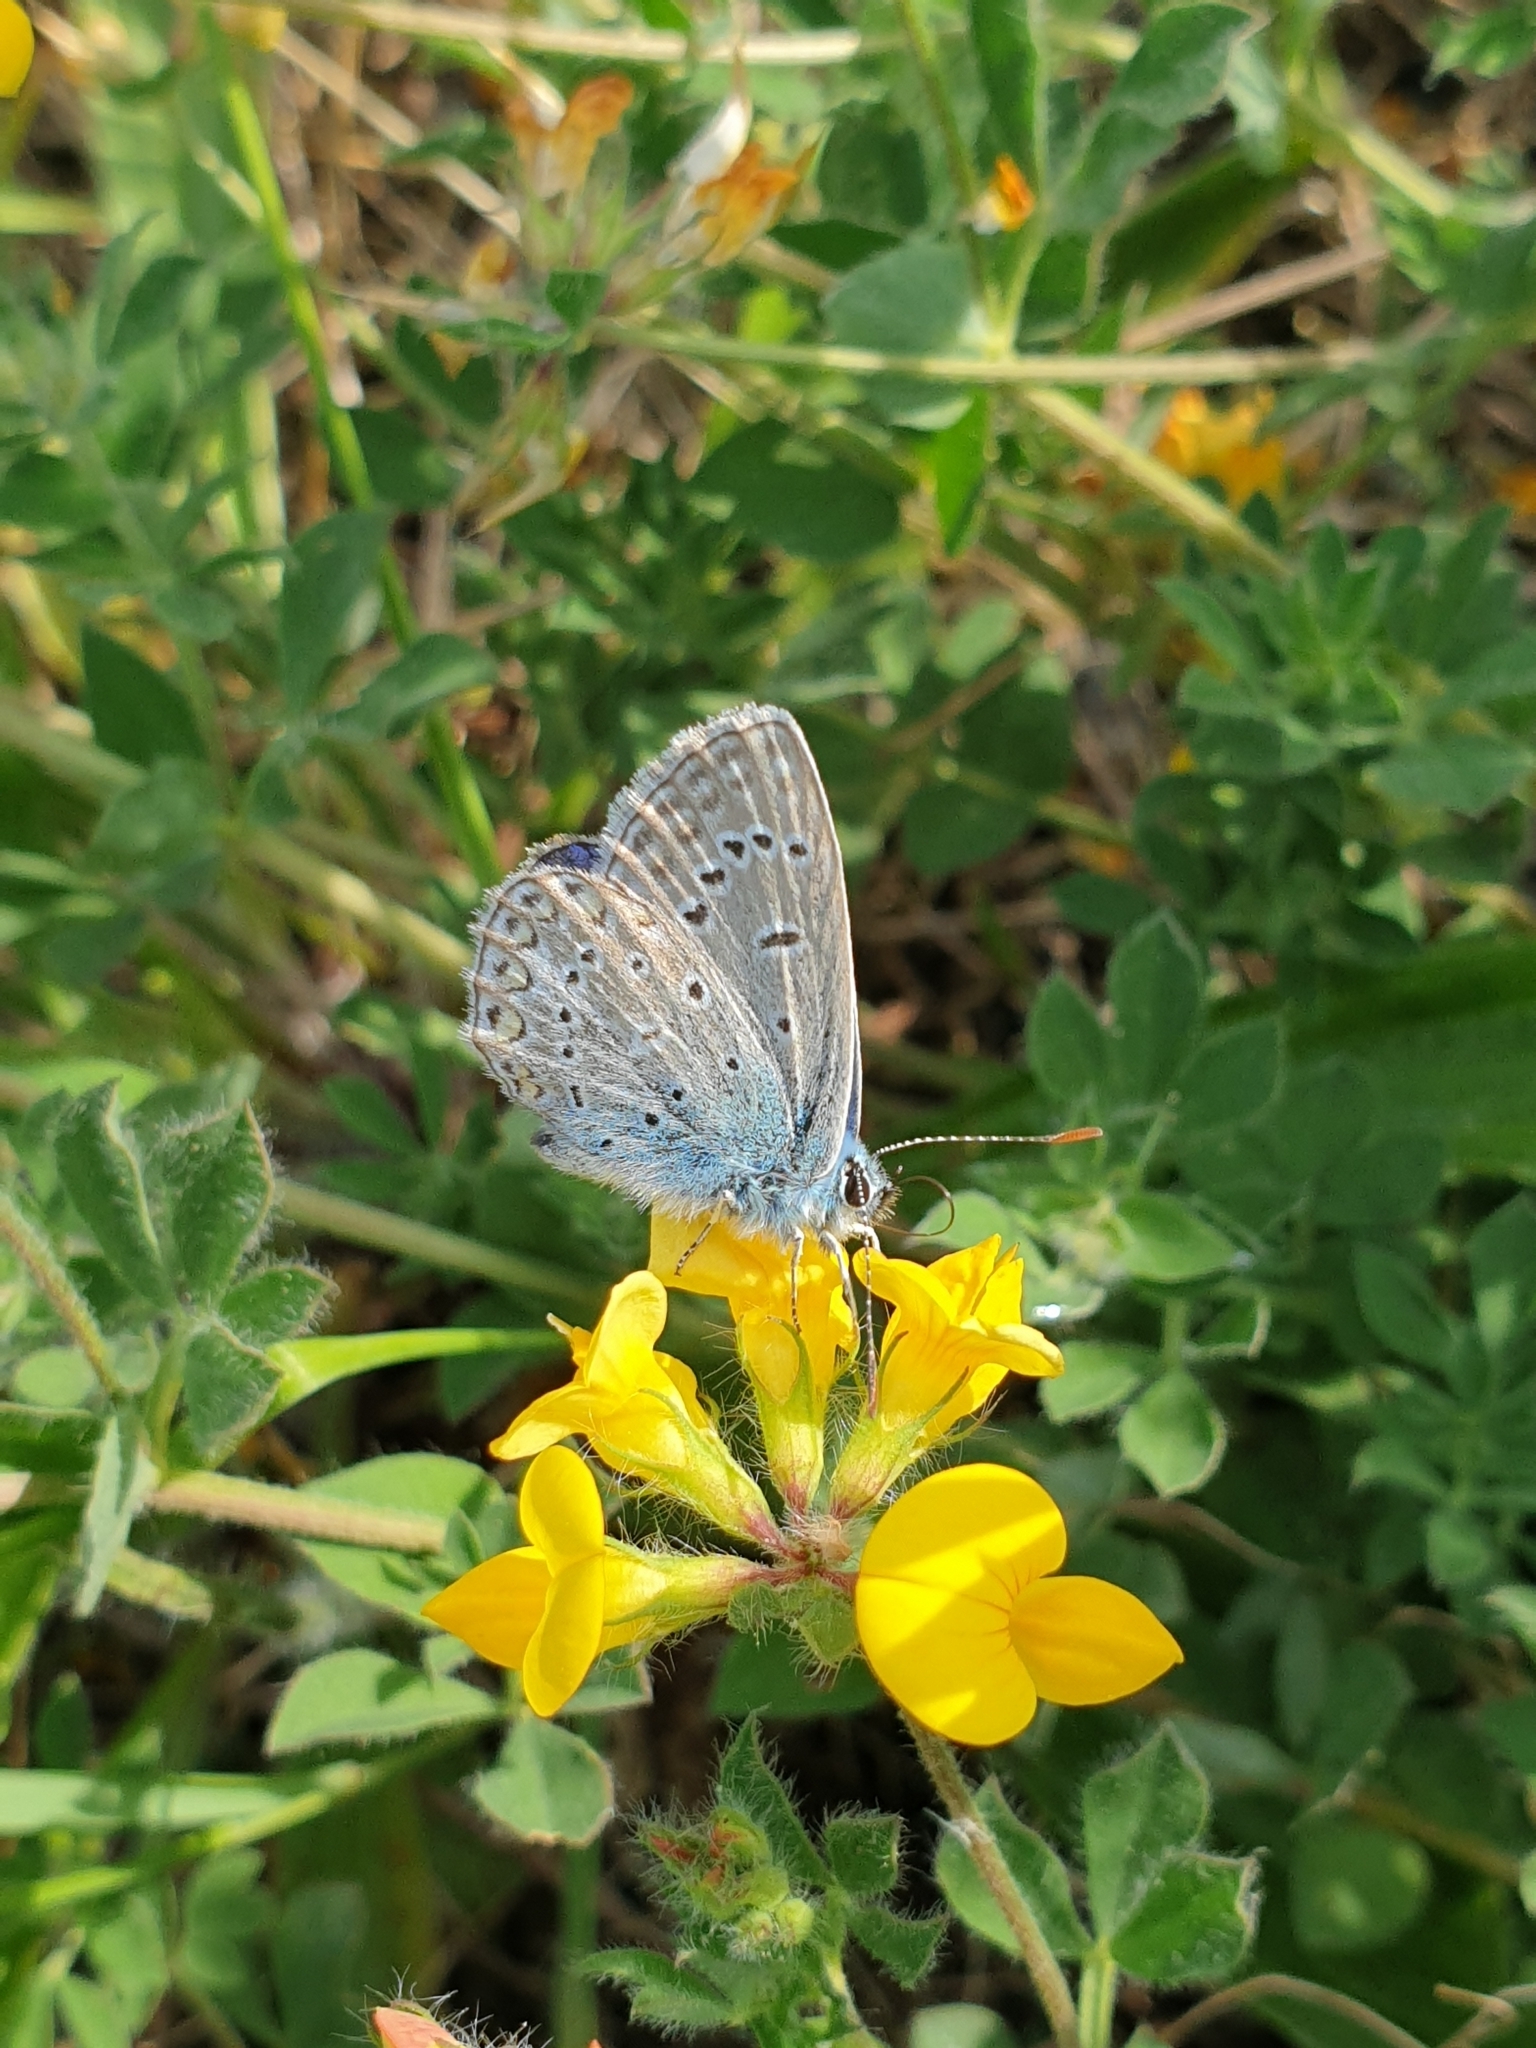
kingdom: Animalia
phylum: Arthropoda
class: Insecta
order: Lepidoptera
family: Lycaenidae
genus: Polyommatus
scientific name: Polyommatus icarus
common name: Common blue
